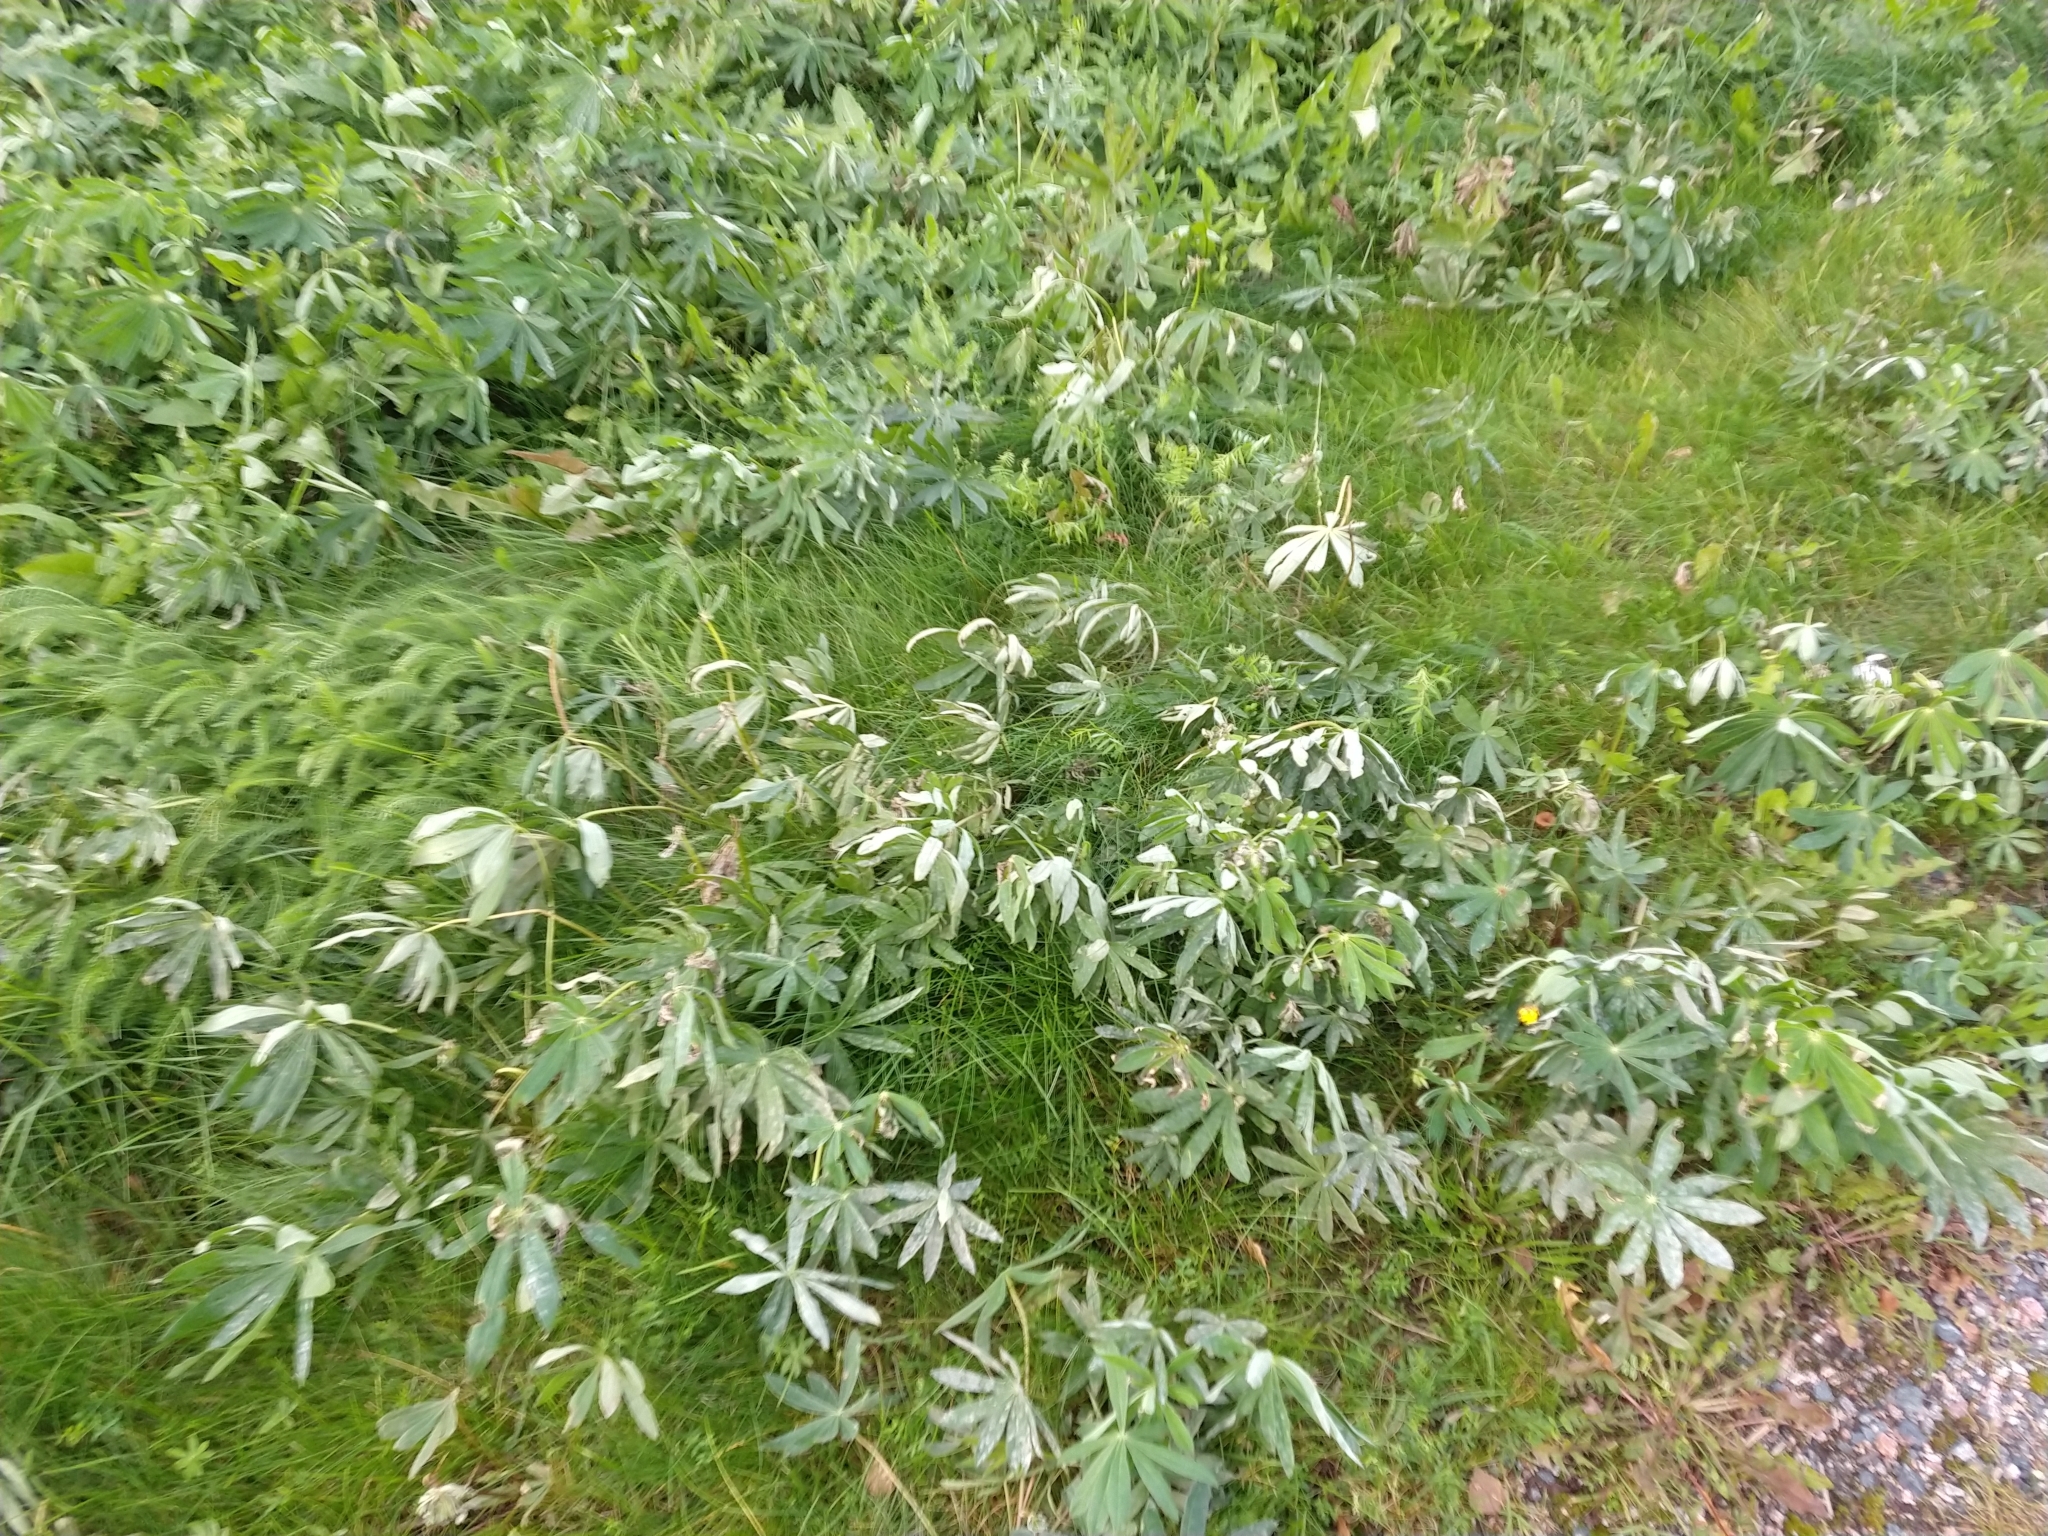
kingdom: Plantae
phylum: Tracheophyta
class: Magnoliopsida
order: Fabales
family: Fabaceae
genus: Lupinus
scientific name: Lupinus polyphyllus
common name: Garden lupin
